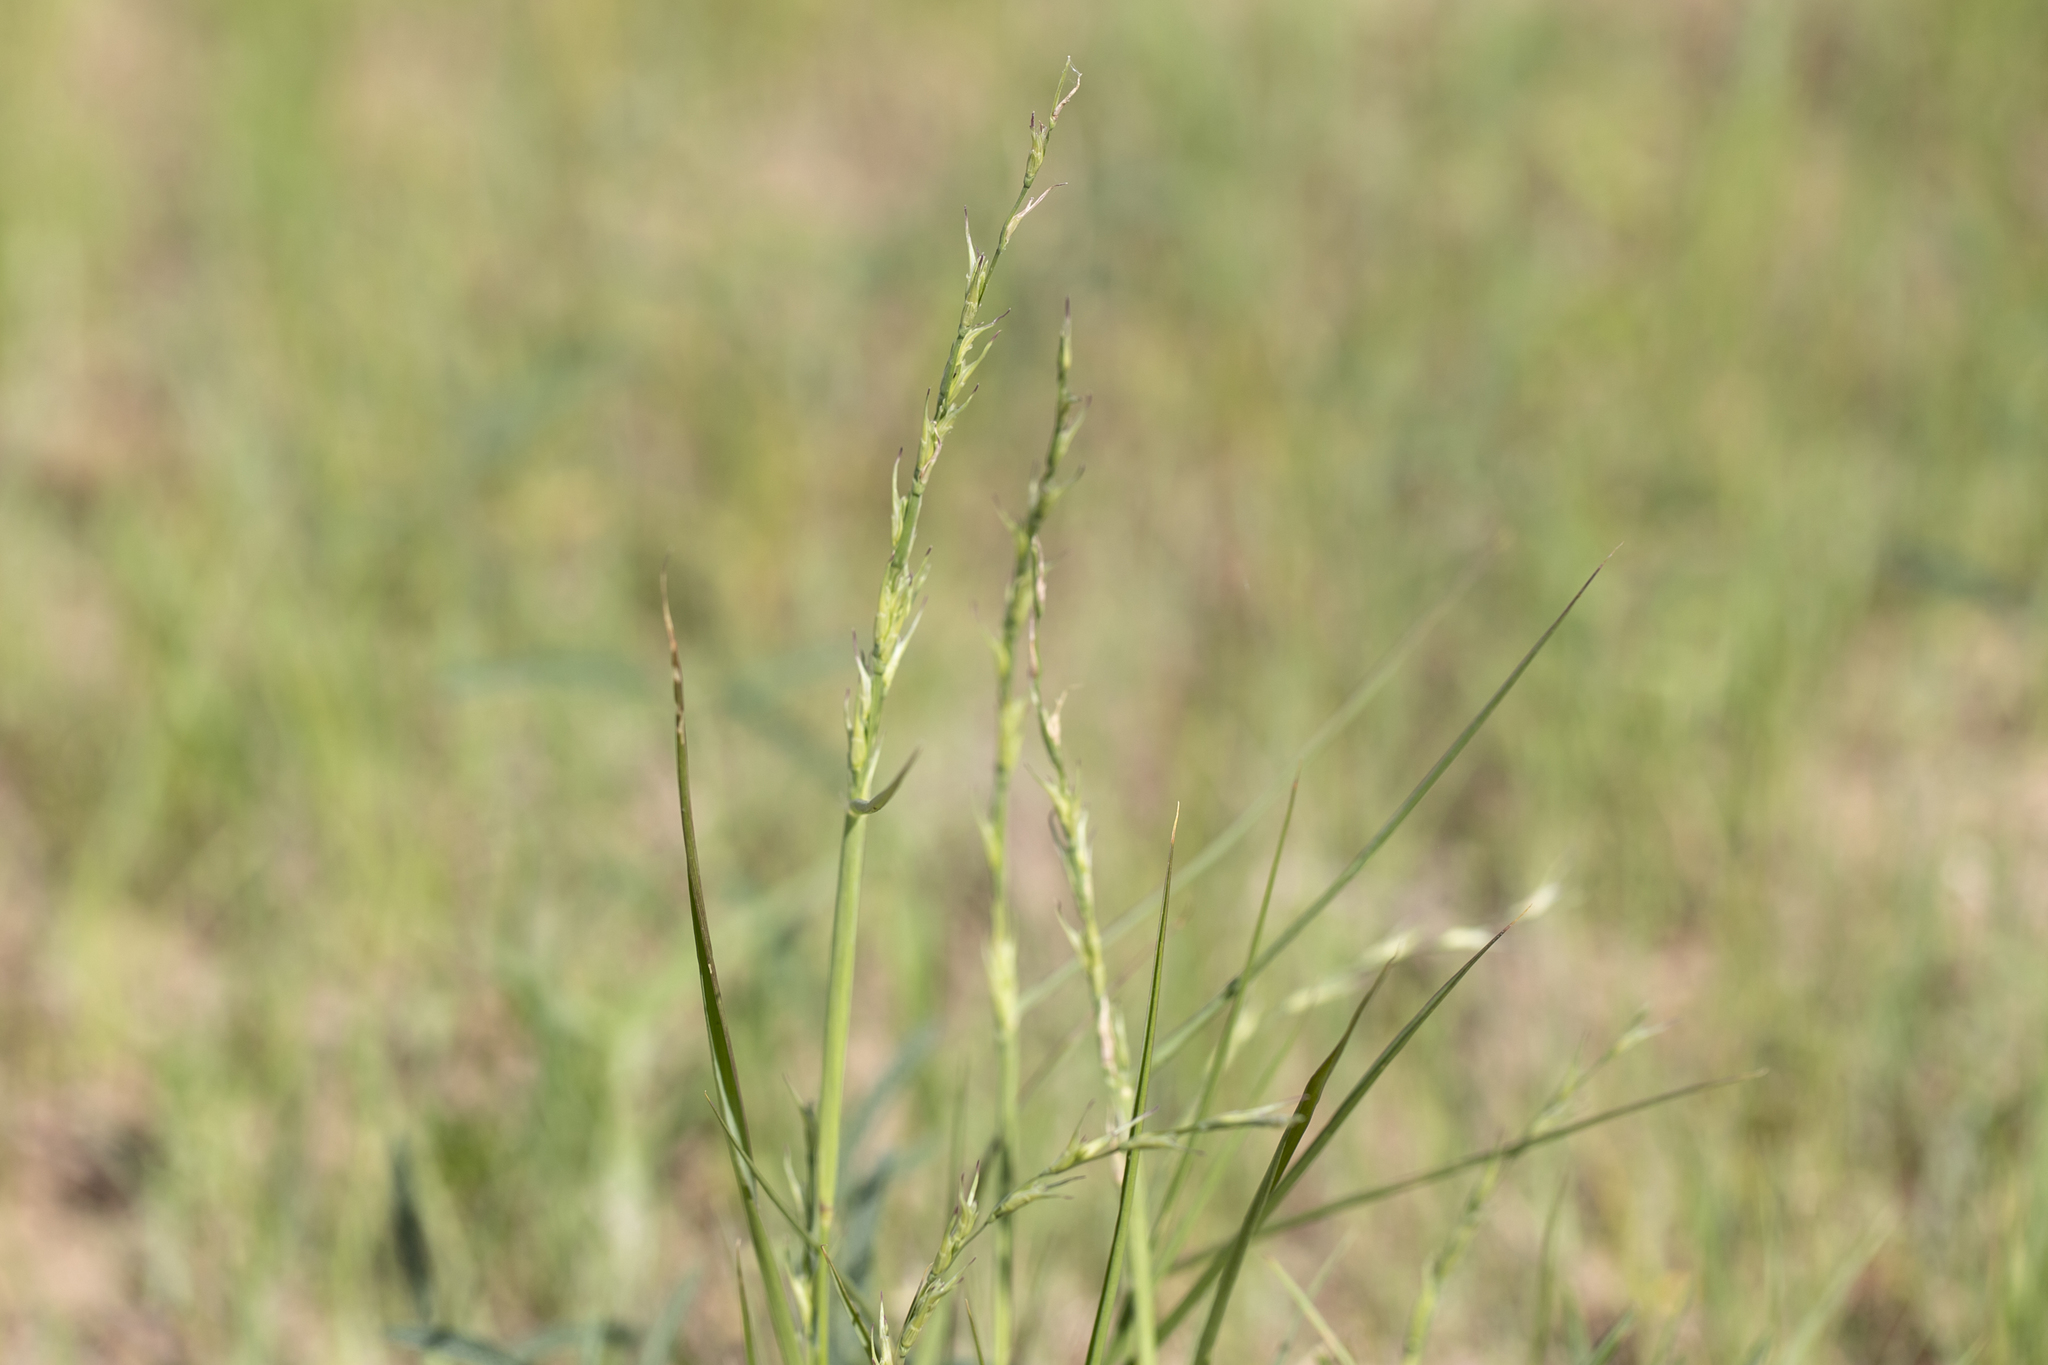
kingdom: Plantae
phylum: Tracheophyta
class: Liliopsida
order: Poales
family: Poaceae
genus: Uranthoecium
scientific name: Uranthoecium truncatum
